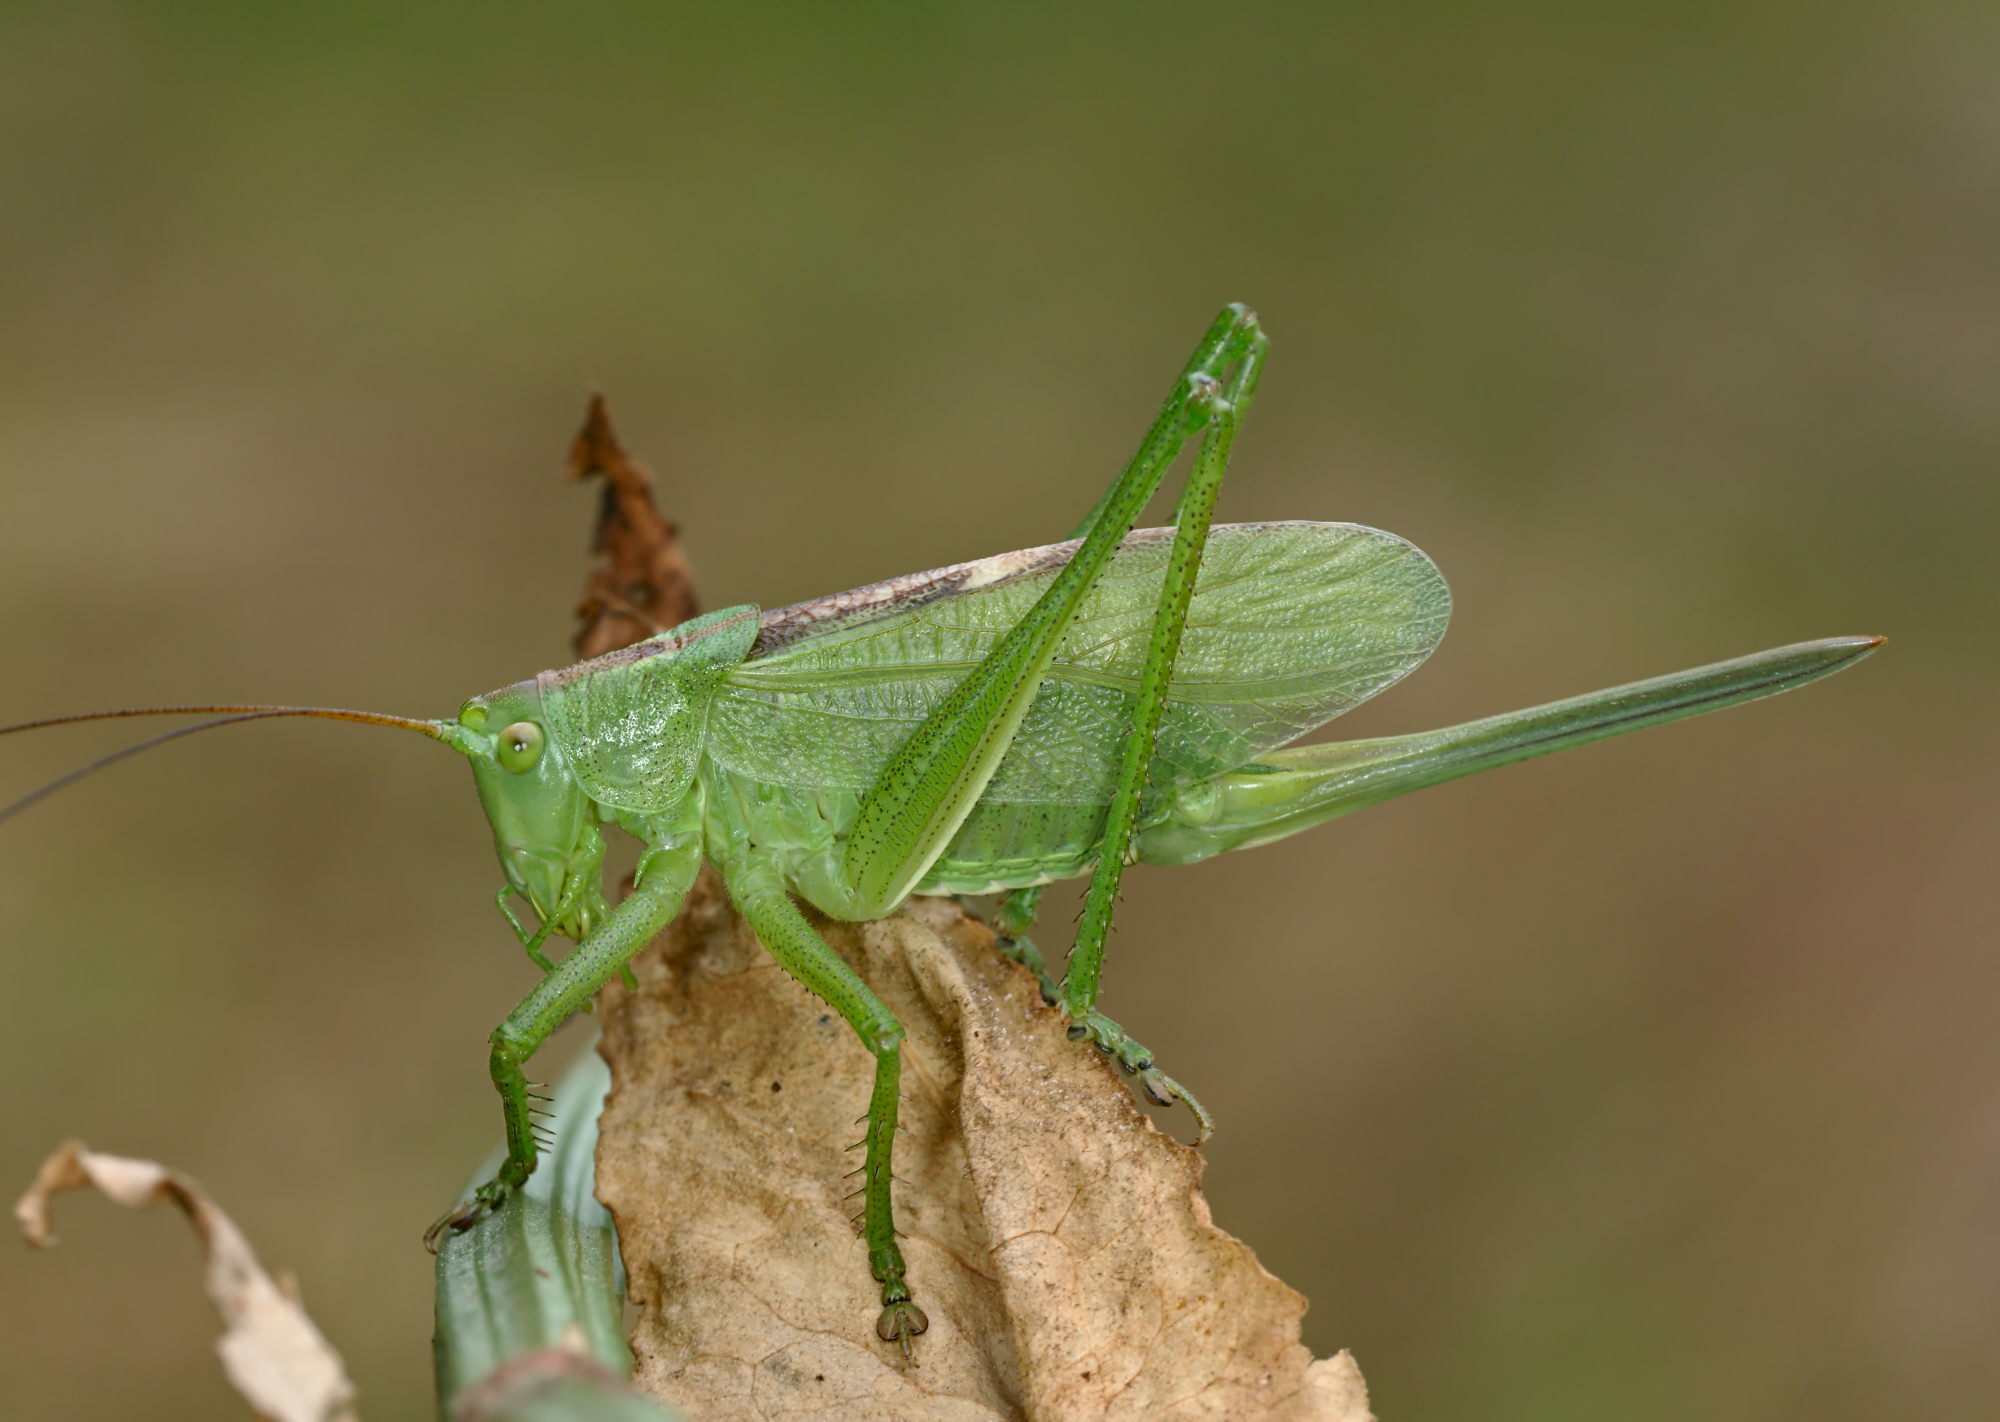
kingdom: Animalia
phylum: Arthropoda
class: Insecta
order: Orthoptera
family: Tettigoniidae
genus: Tettigonia
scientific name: Tettigonia cantans
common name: Upland green bush-cricket
